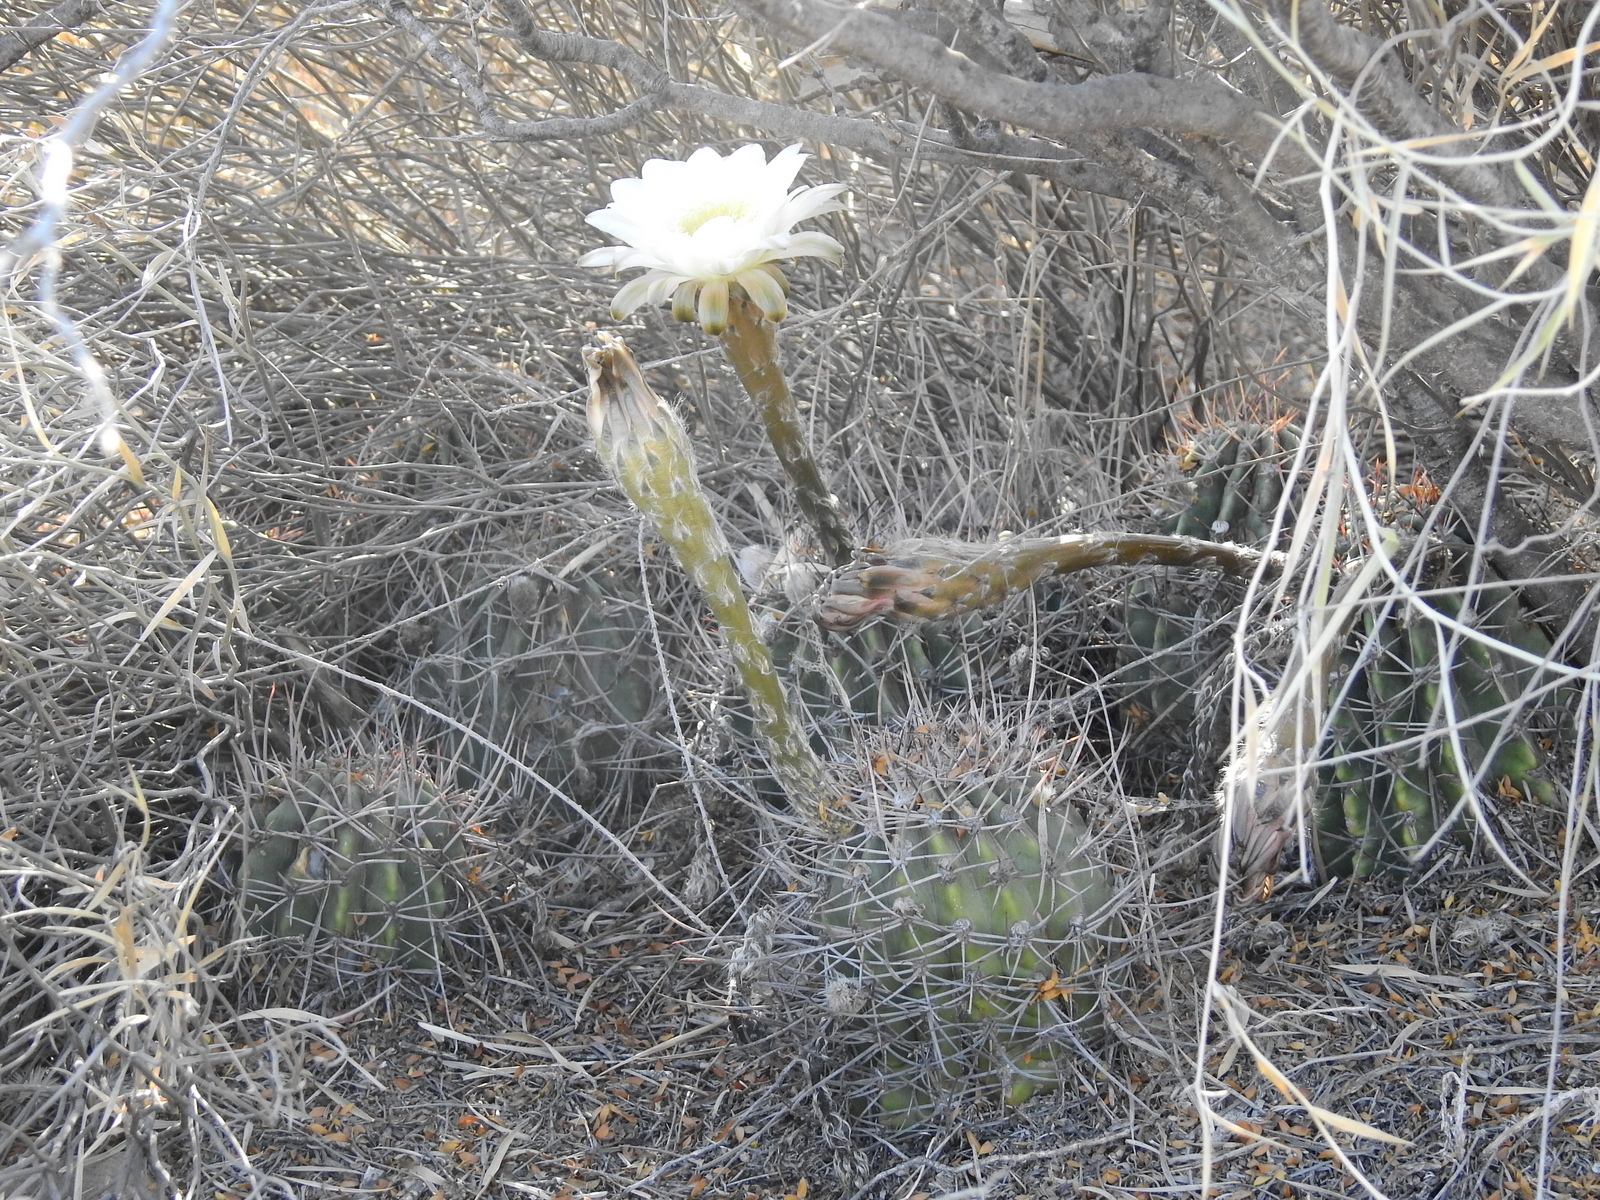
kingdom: Plantae
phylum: Tracheophyta
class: Magnoliopsida
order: Caryophyllales
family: Cactaceae
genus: Acanthocalycium
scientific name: Acanthocalycium leucanthum
